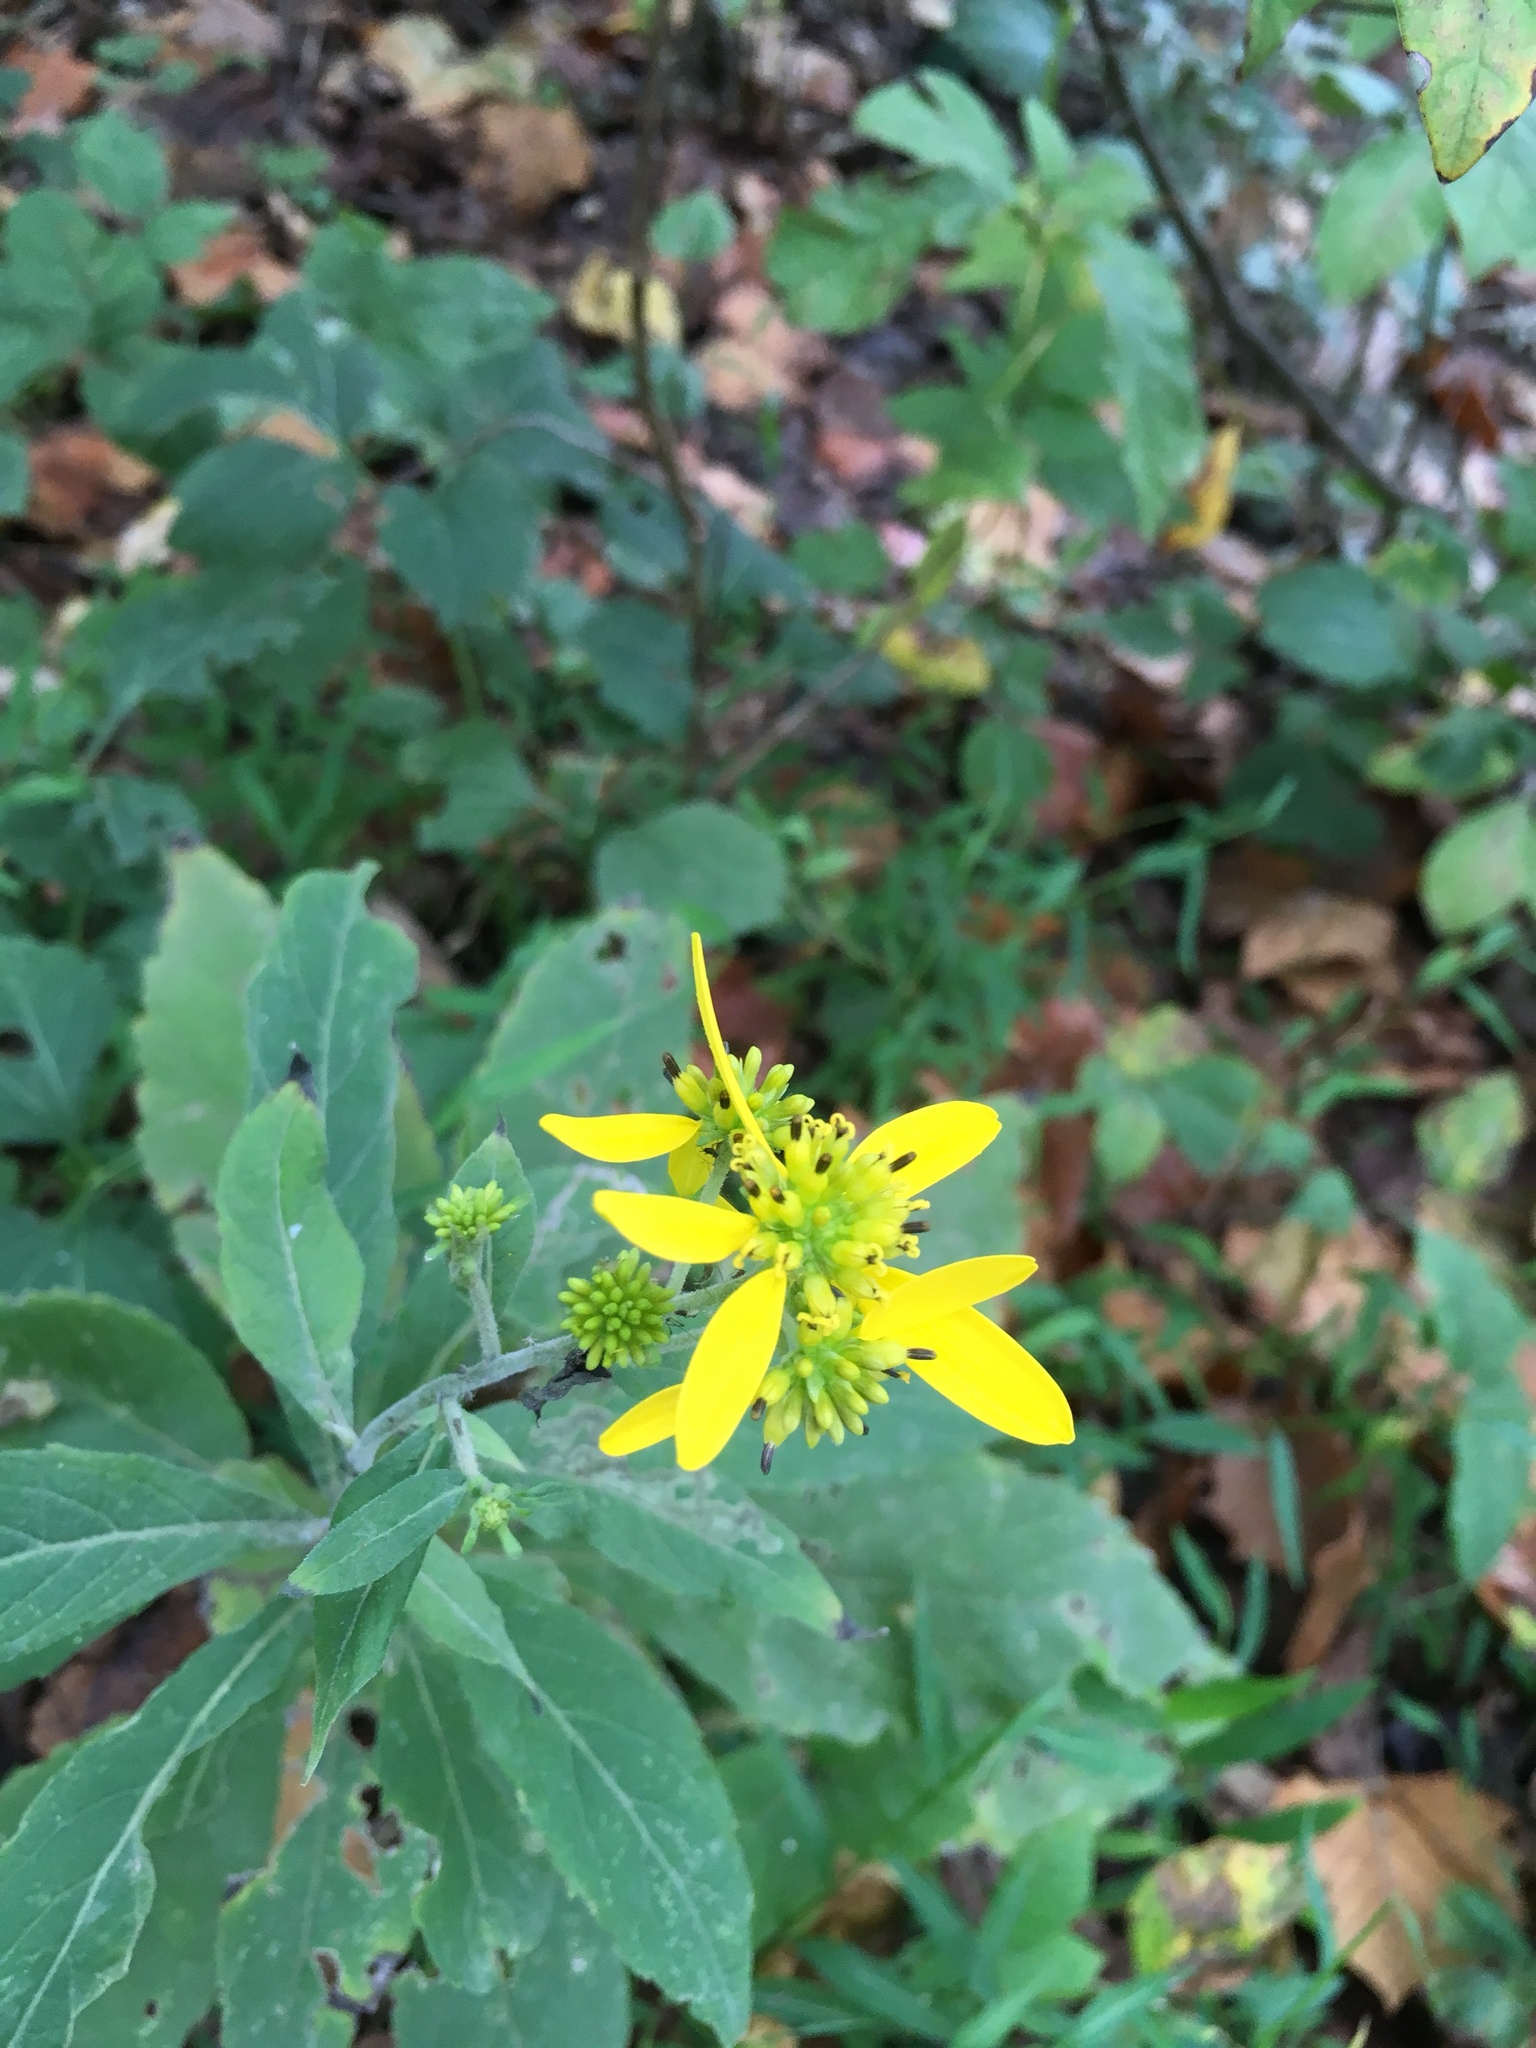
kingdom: Plantae
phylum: Tracheophyta
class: Magnoliopsida
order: Asterales
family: Asteraceae
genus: Verbesina
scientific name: Verbesina alternifolia
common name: Wingstem
